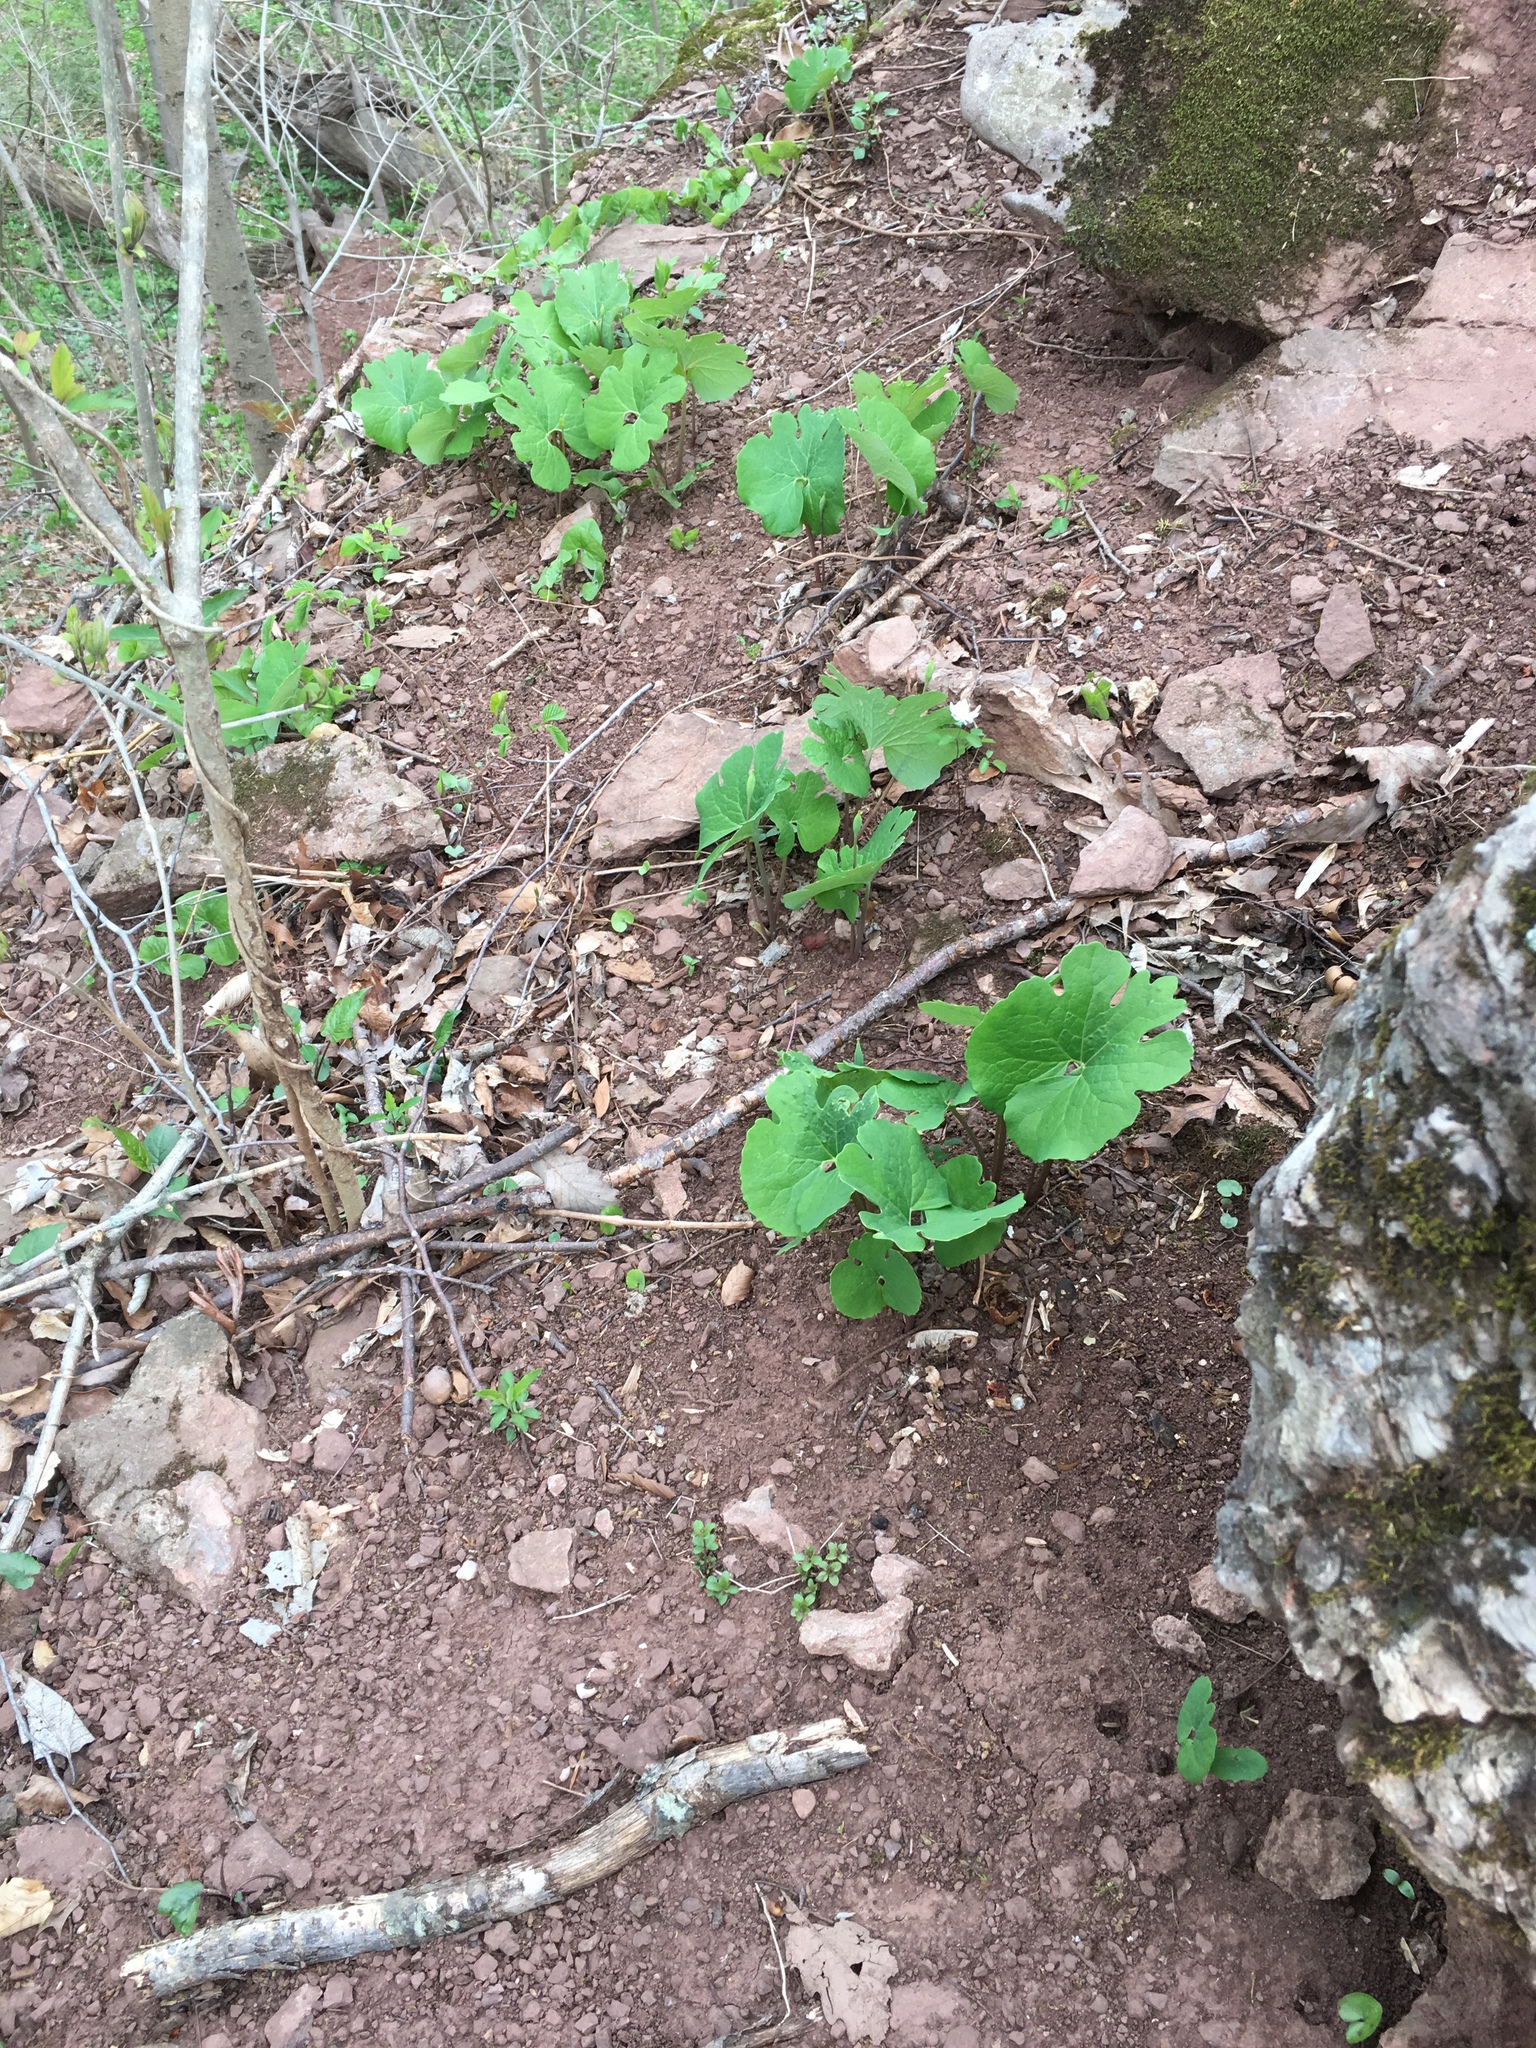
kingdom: Plantae
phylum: Tracheophyta
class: Magnoliopsida
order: Ranunculales
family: Papaveraceae
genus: Sanguinaria
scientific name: Sanguinaria canadensis
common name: Bloodroot
